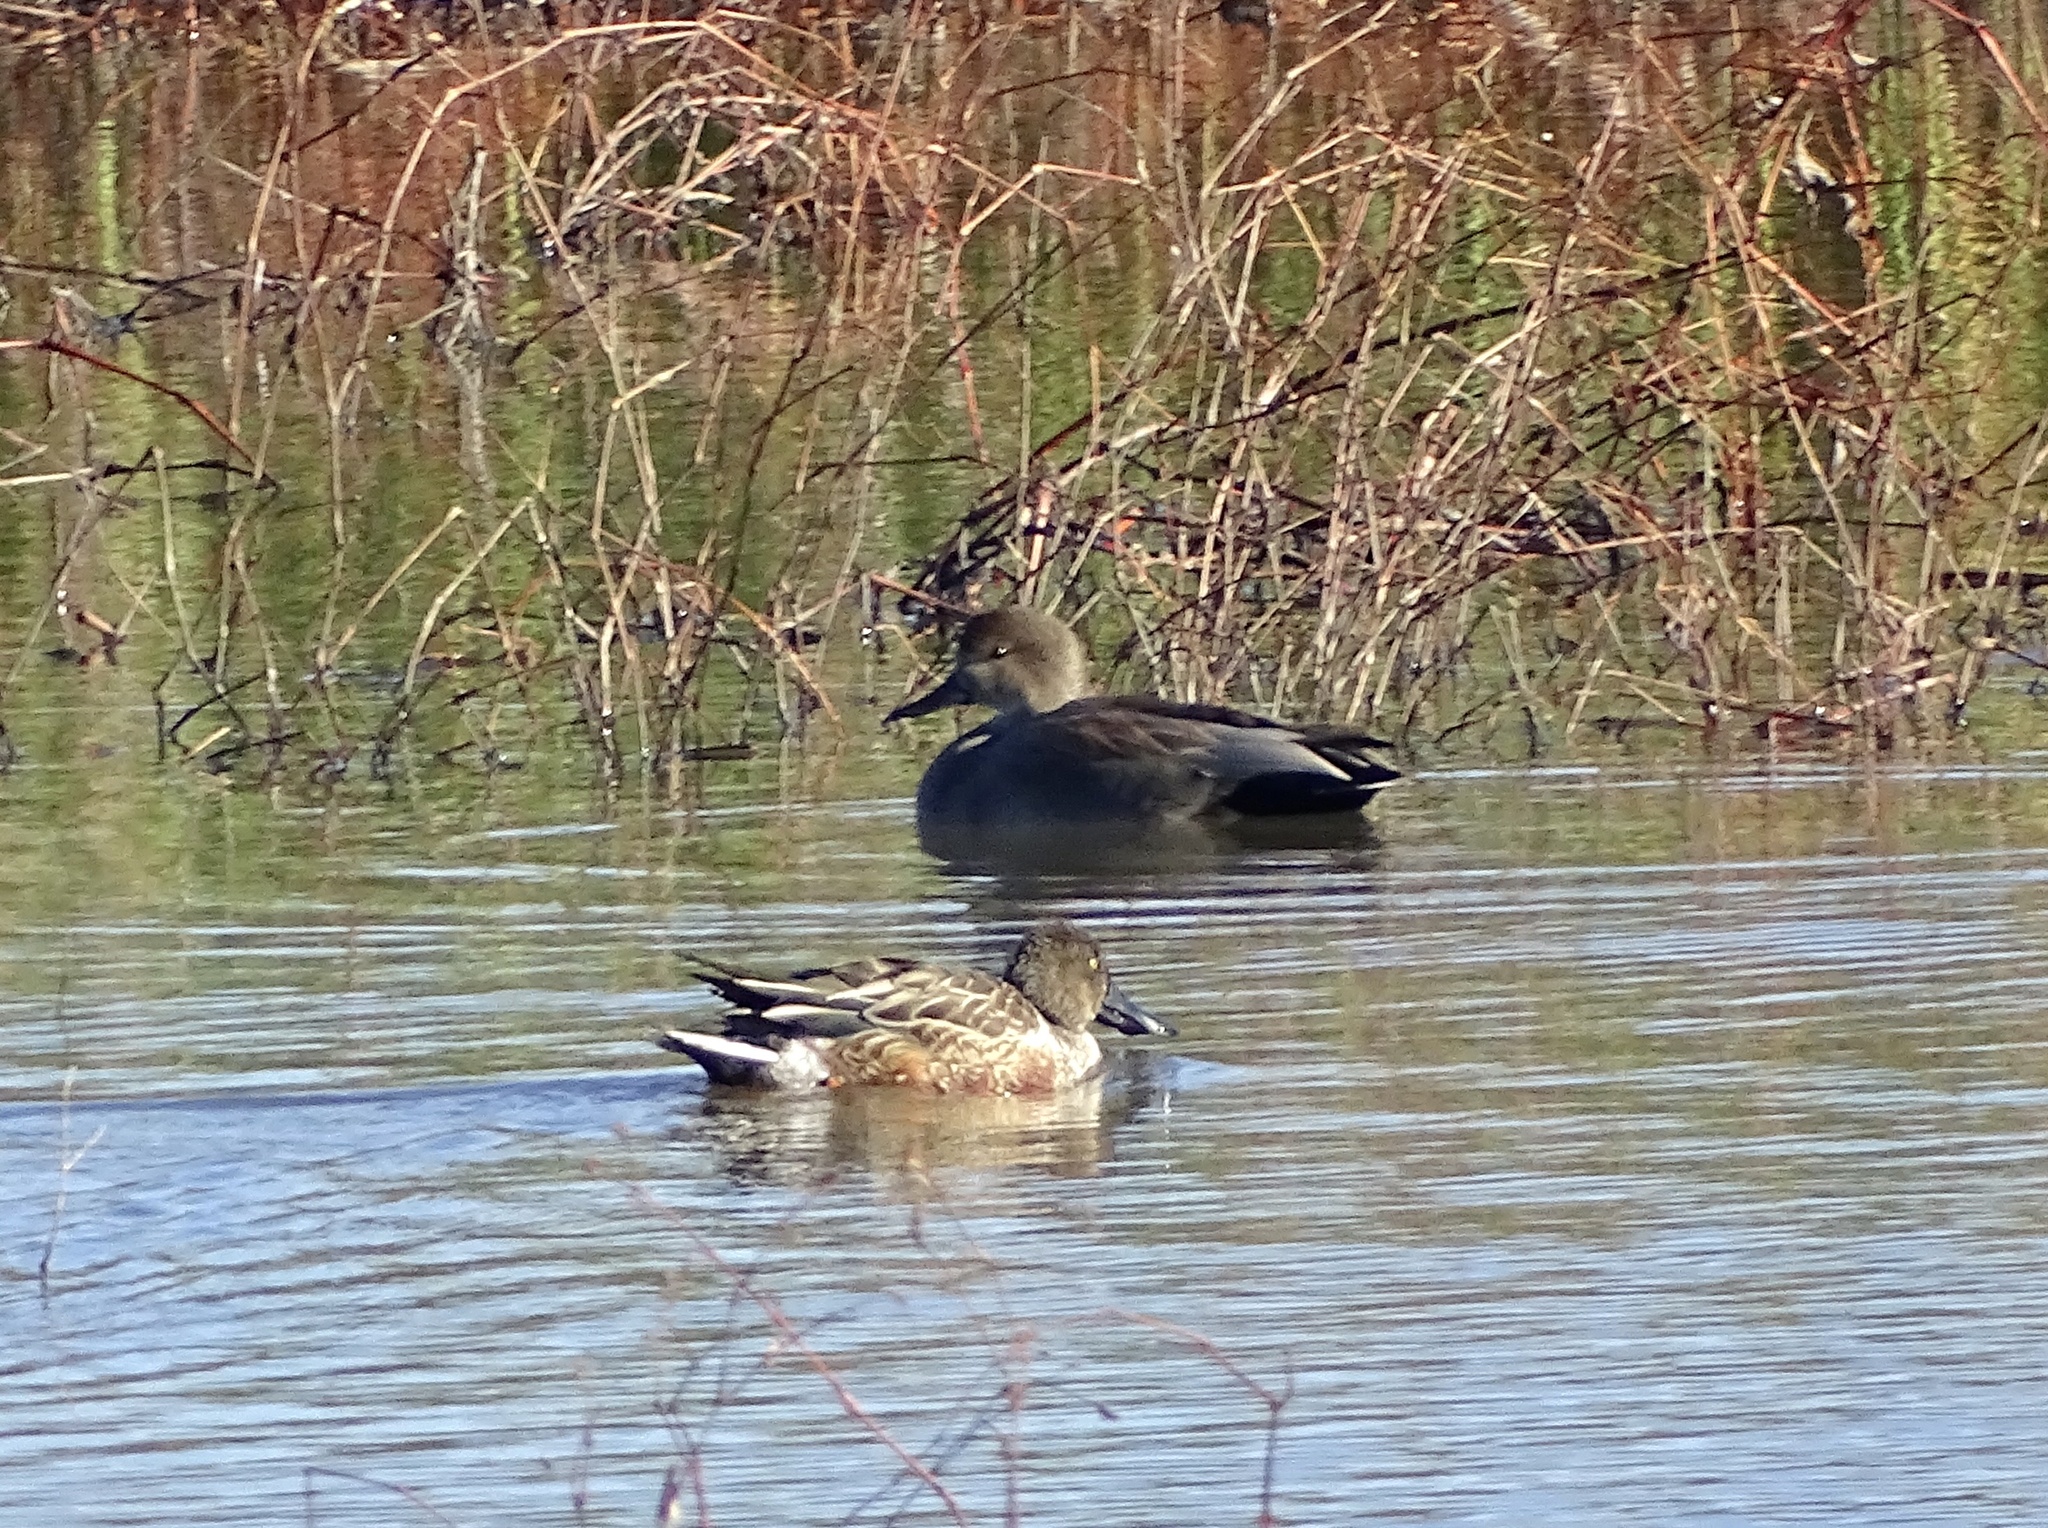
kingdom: Animalia
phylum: Chordata
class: Aves
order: Anseriformes
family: Anatidae
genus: Spatula
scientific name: Spatula clypeata
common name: Northern shoveler
